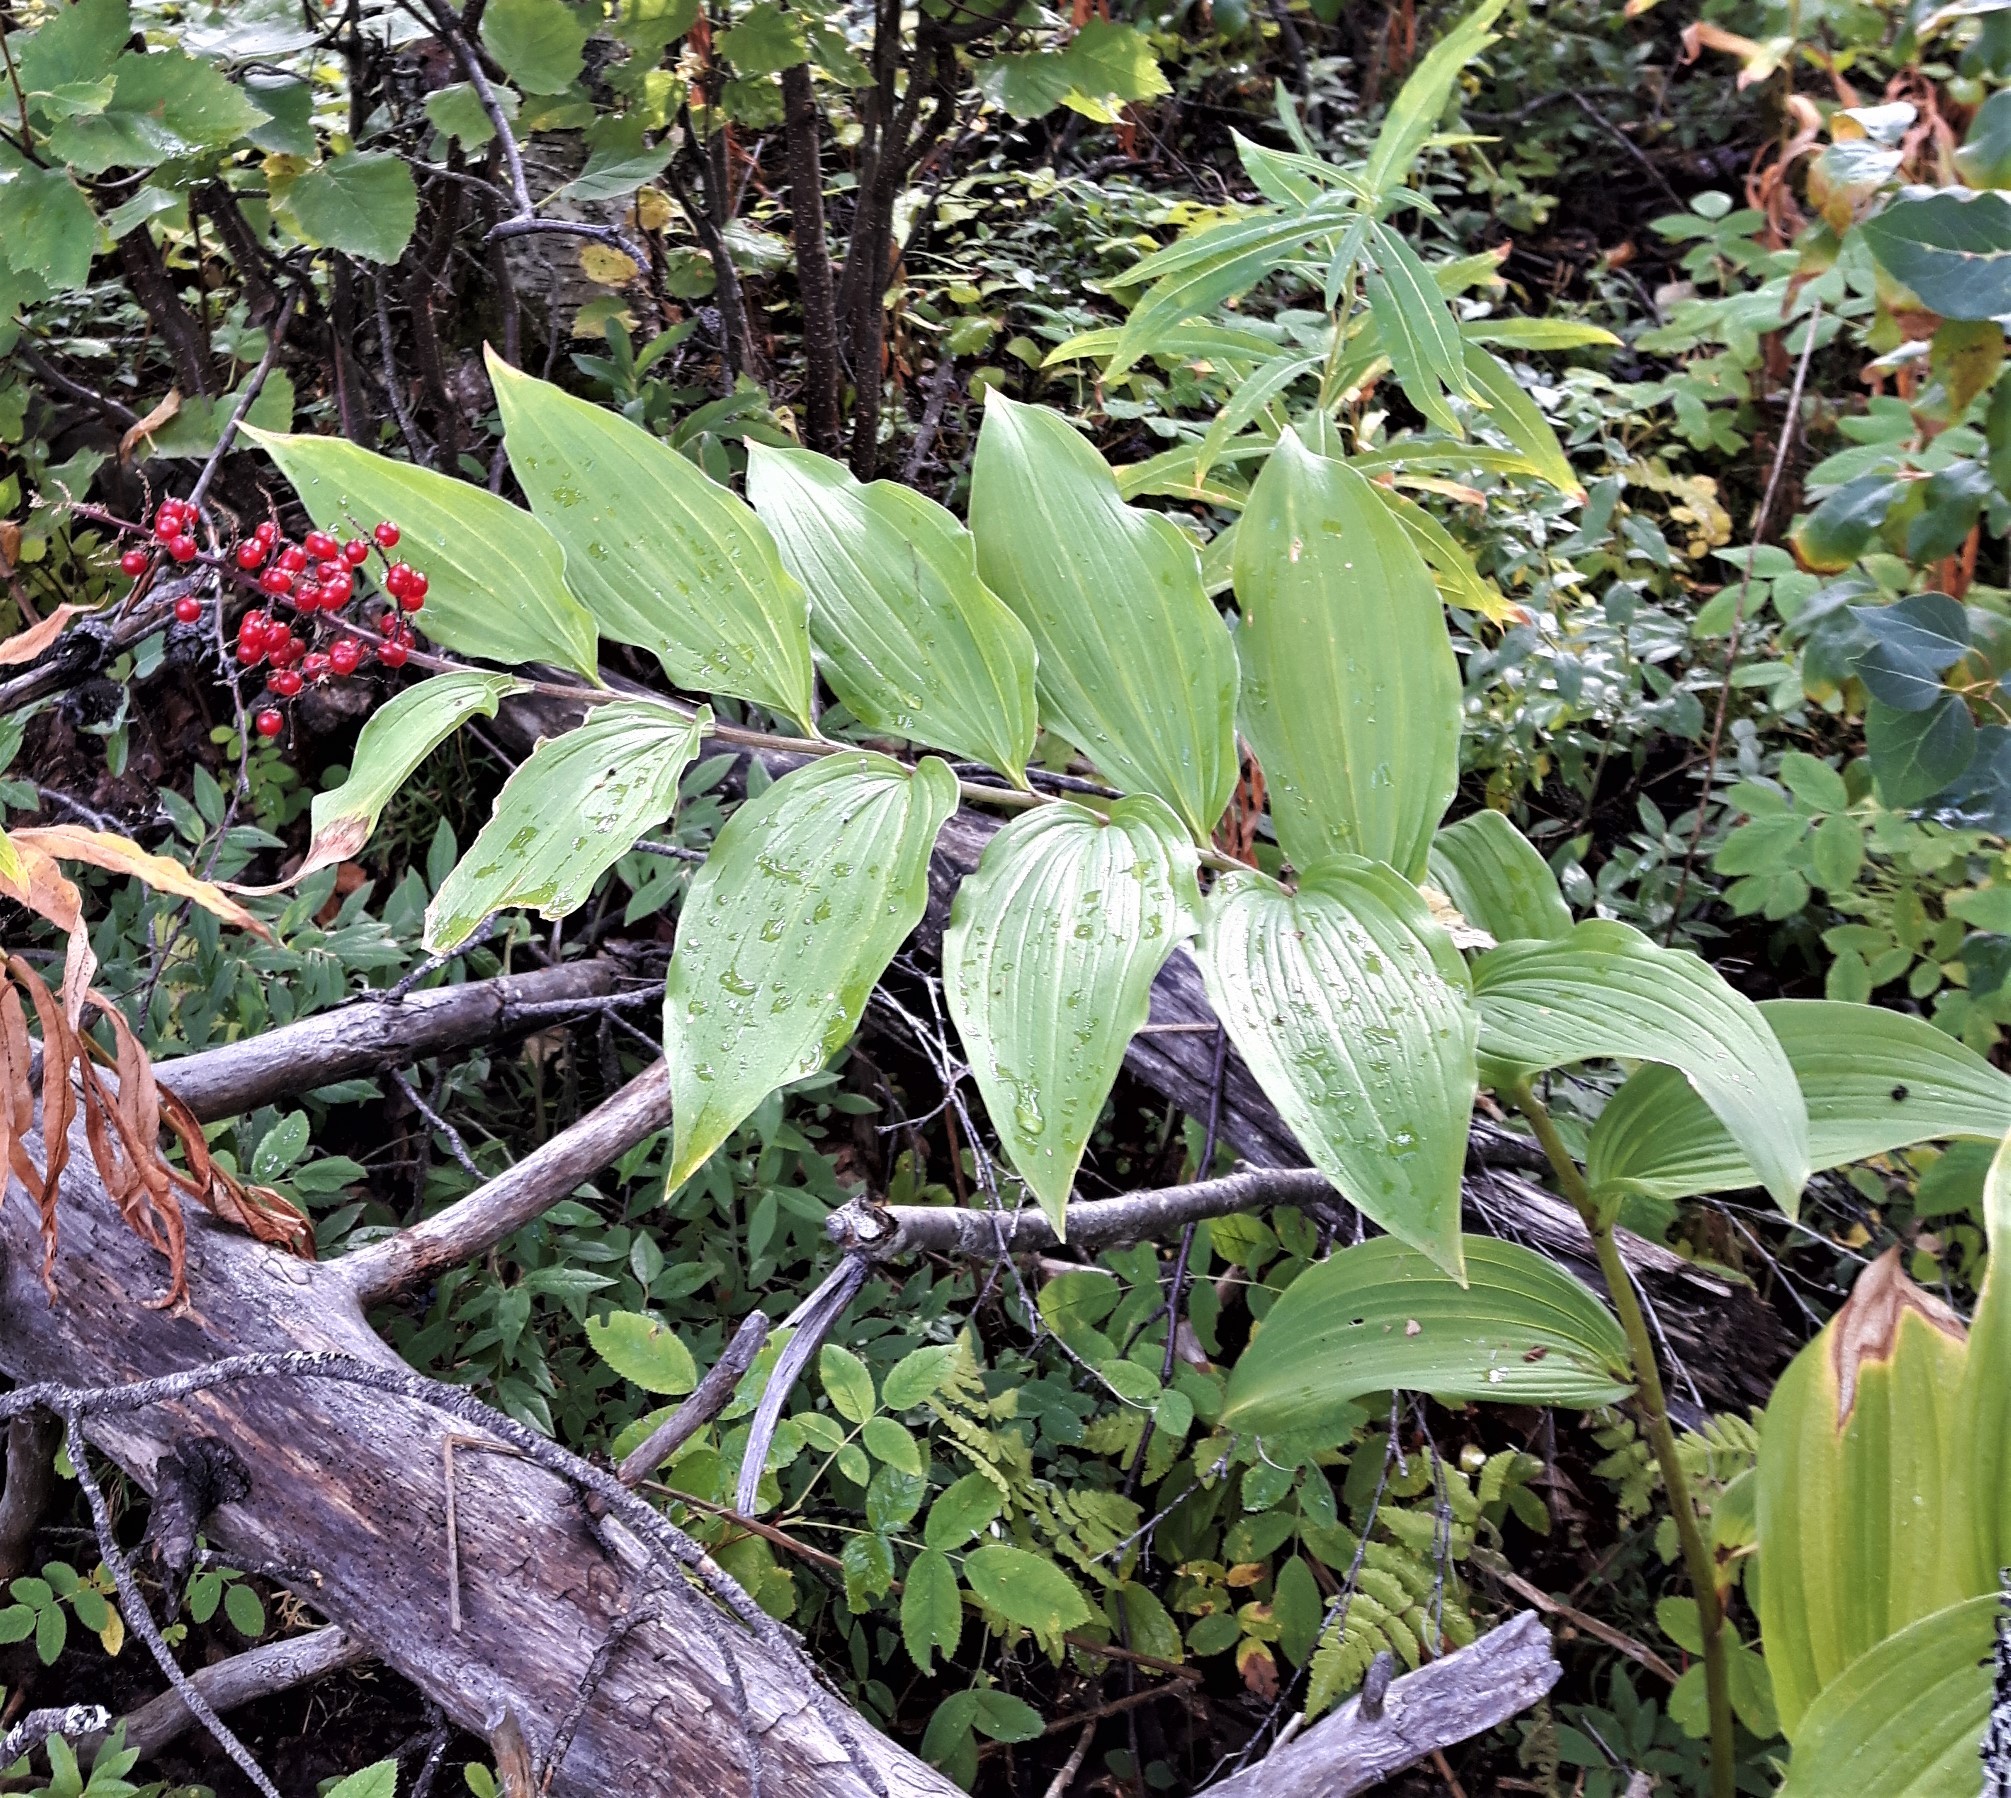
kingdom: Plantae
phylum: Tracheophyta
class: Liliopsida
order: Asparagales
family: Asparagaceae
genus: Maianthemum
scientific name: Maianthemum racemosum
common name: False spikenard
